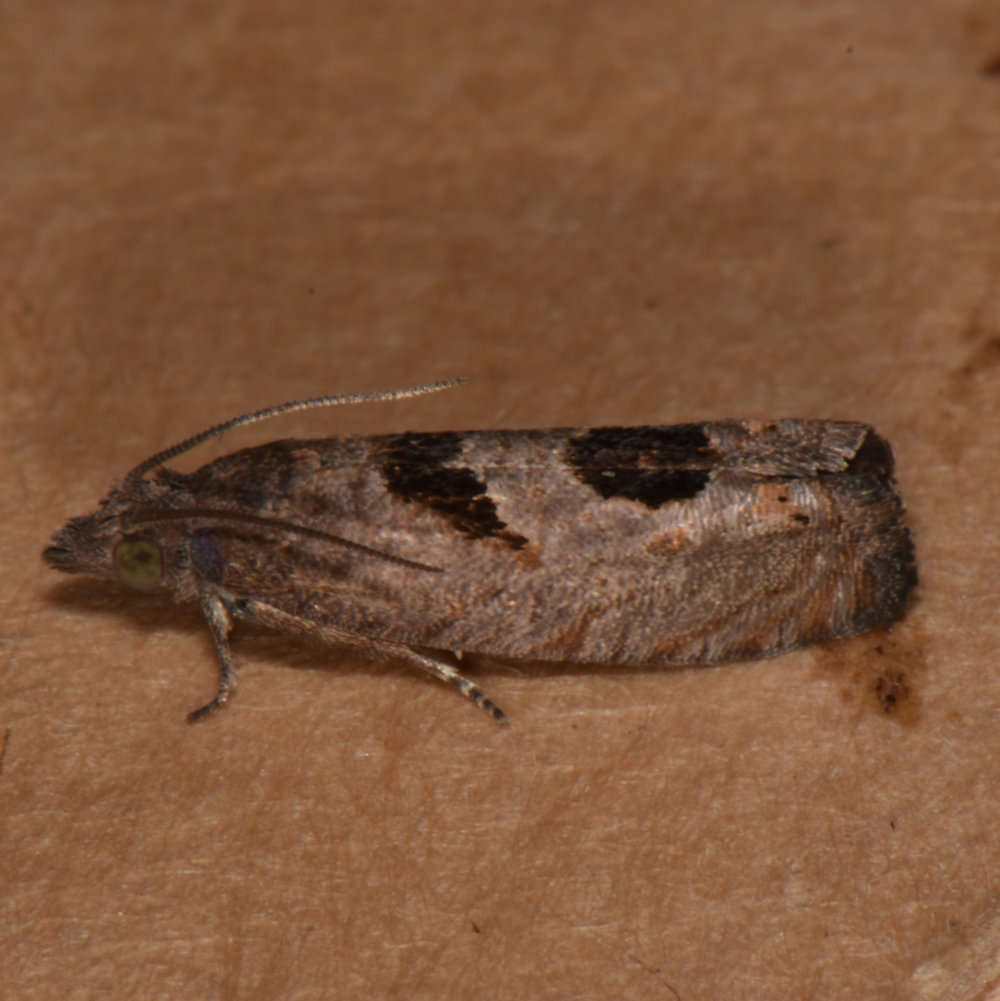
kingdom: Animalia
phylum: Arthropoda
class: Insecta
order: Lepidoptera
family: Tortricidae
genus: Eucosma
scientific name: Eucosma tomonana
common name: Aster-head eucosma moth
